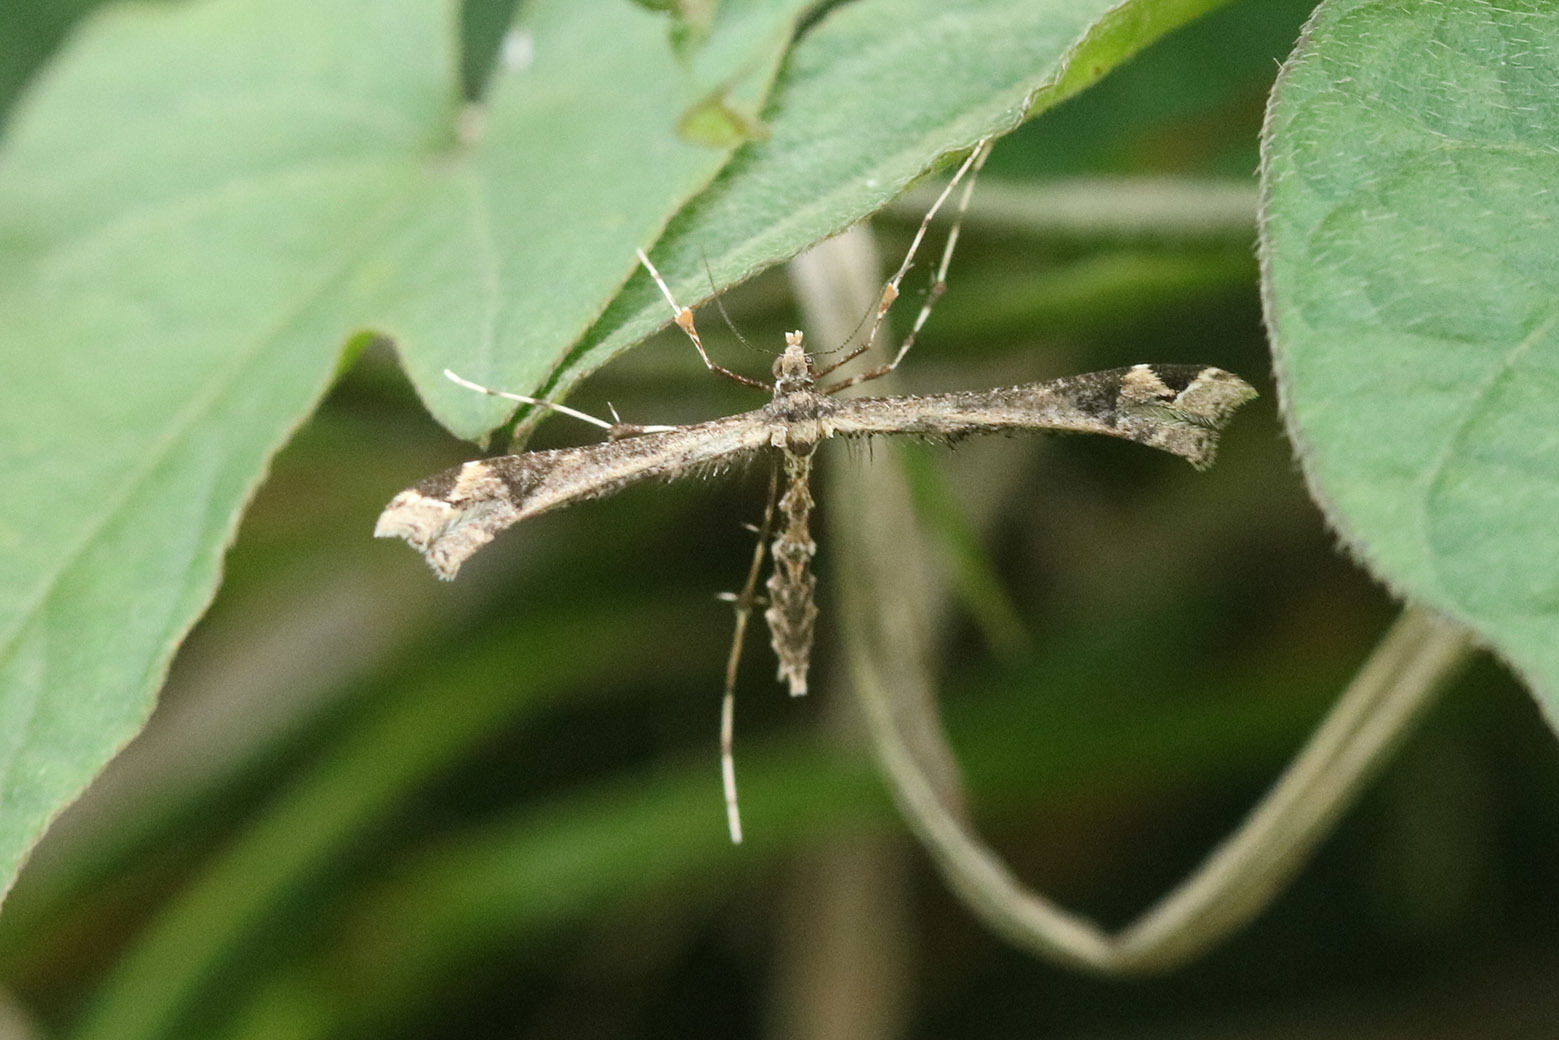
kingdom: Animalia
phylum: Arthropoda
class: Insecta
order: Lepidoptera
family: Pterophoridae
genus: Stenoptilodes
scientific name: Stenoptilodes sematodactyla
